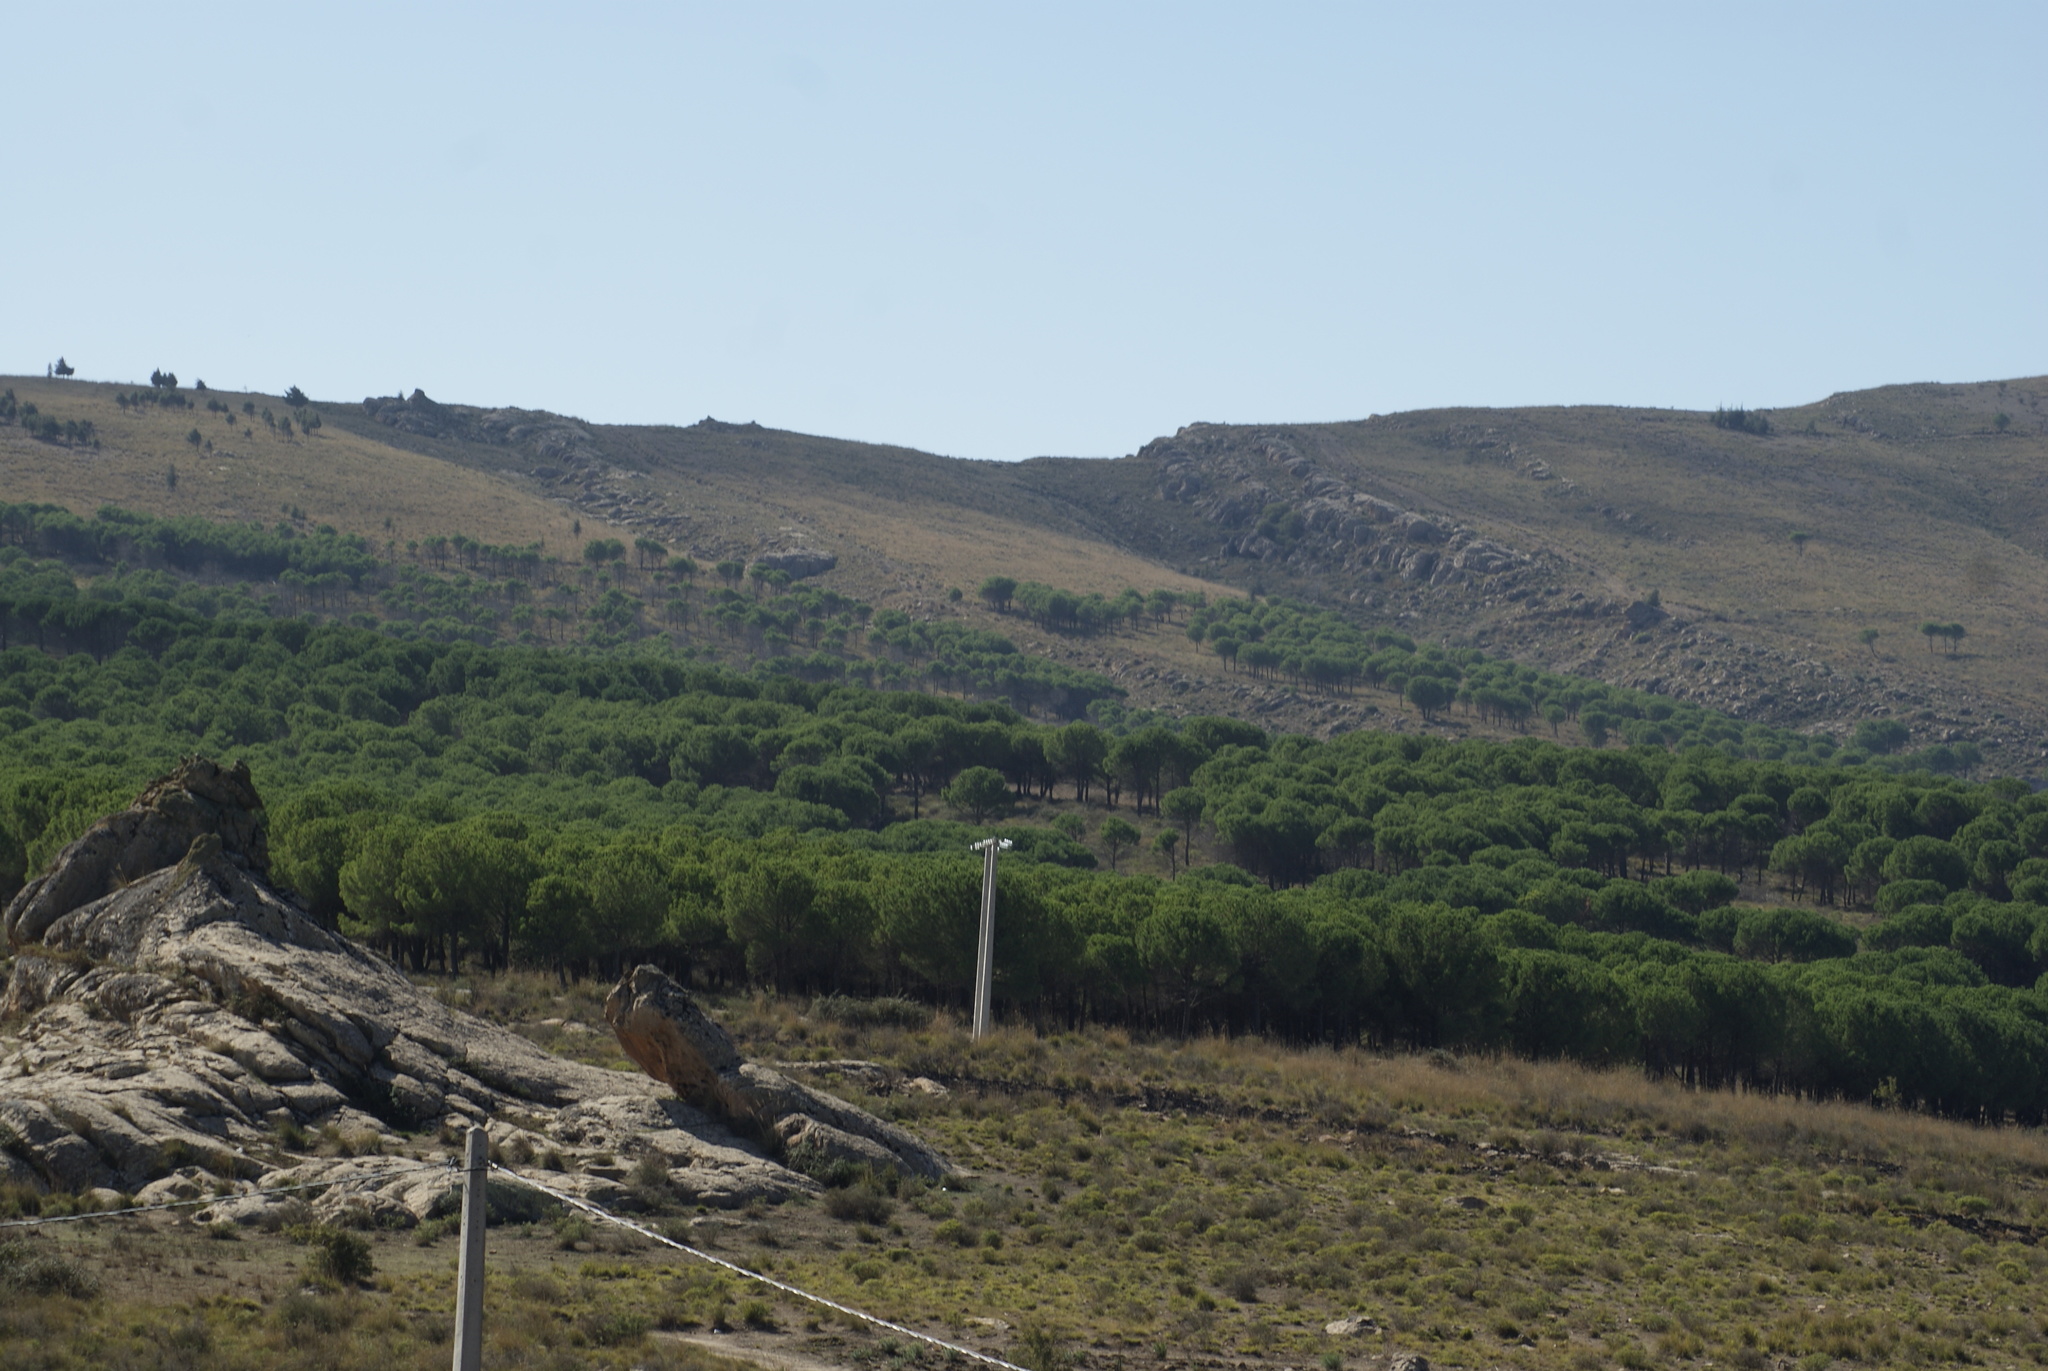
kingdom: Plantae
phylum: Tracheophyta
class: Pinopsida
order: Pinales
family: Pinaceae
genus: Pinus
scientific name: Pinus halepensis
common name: Aleppo pine
